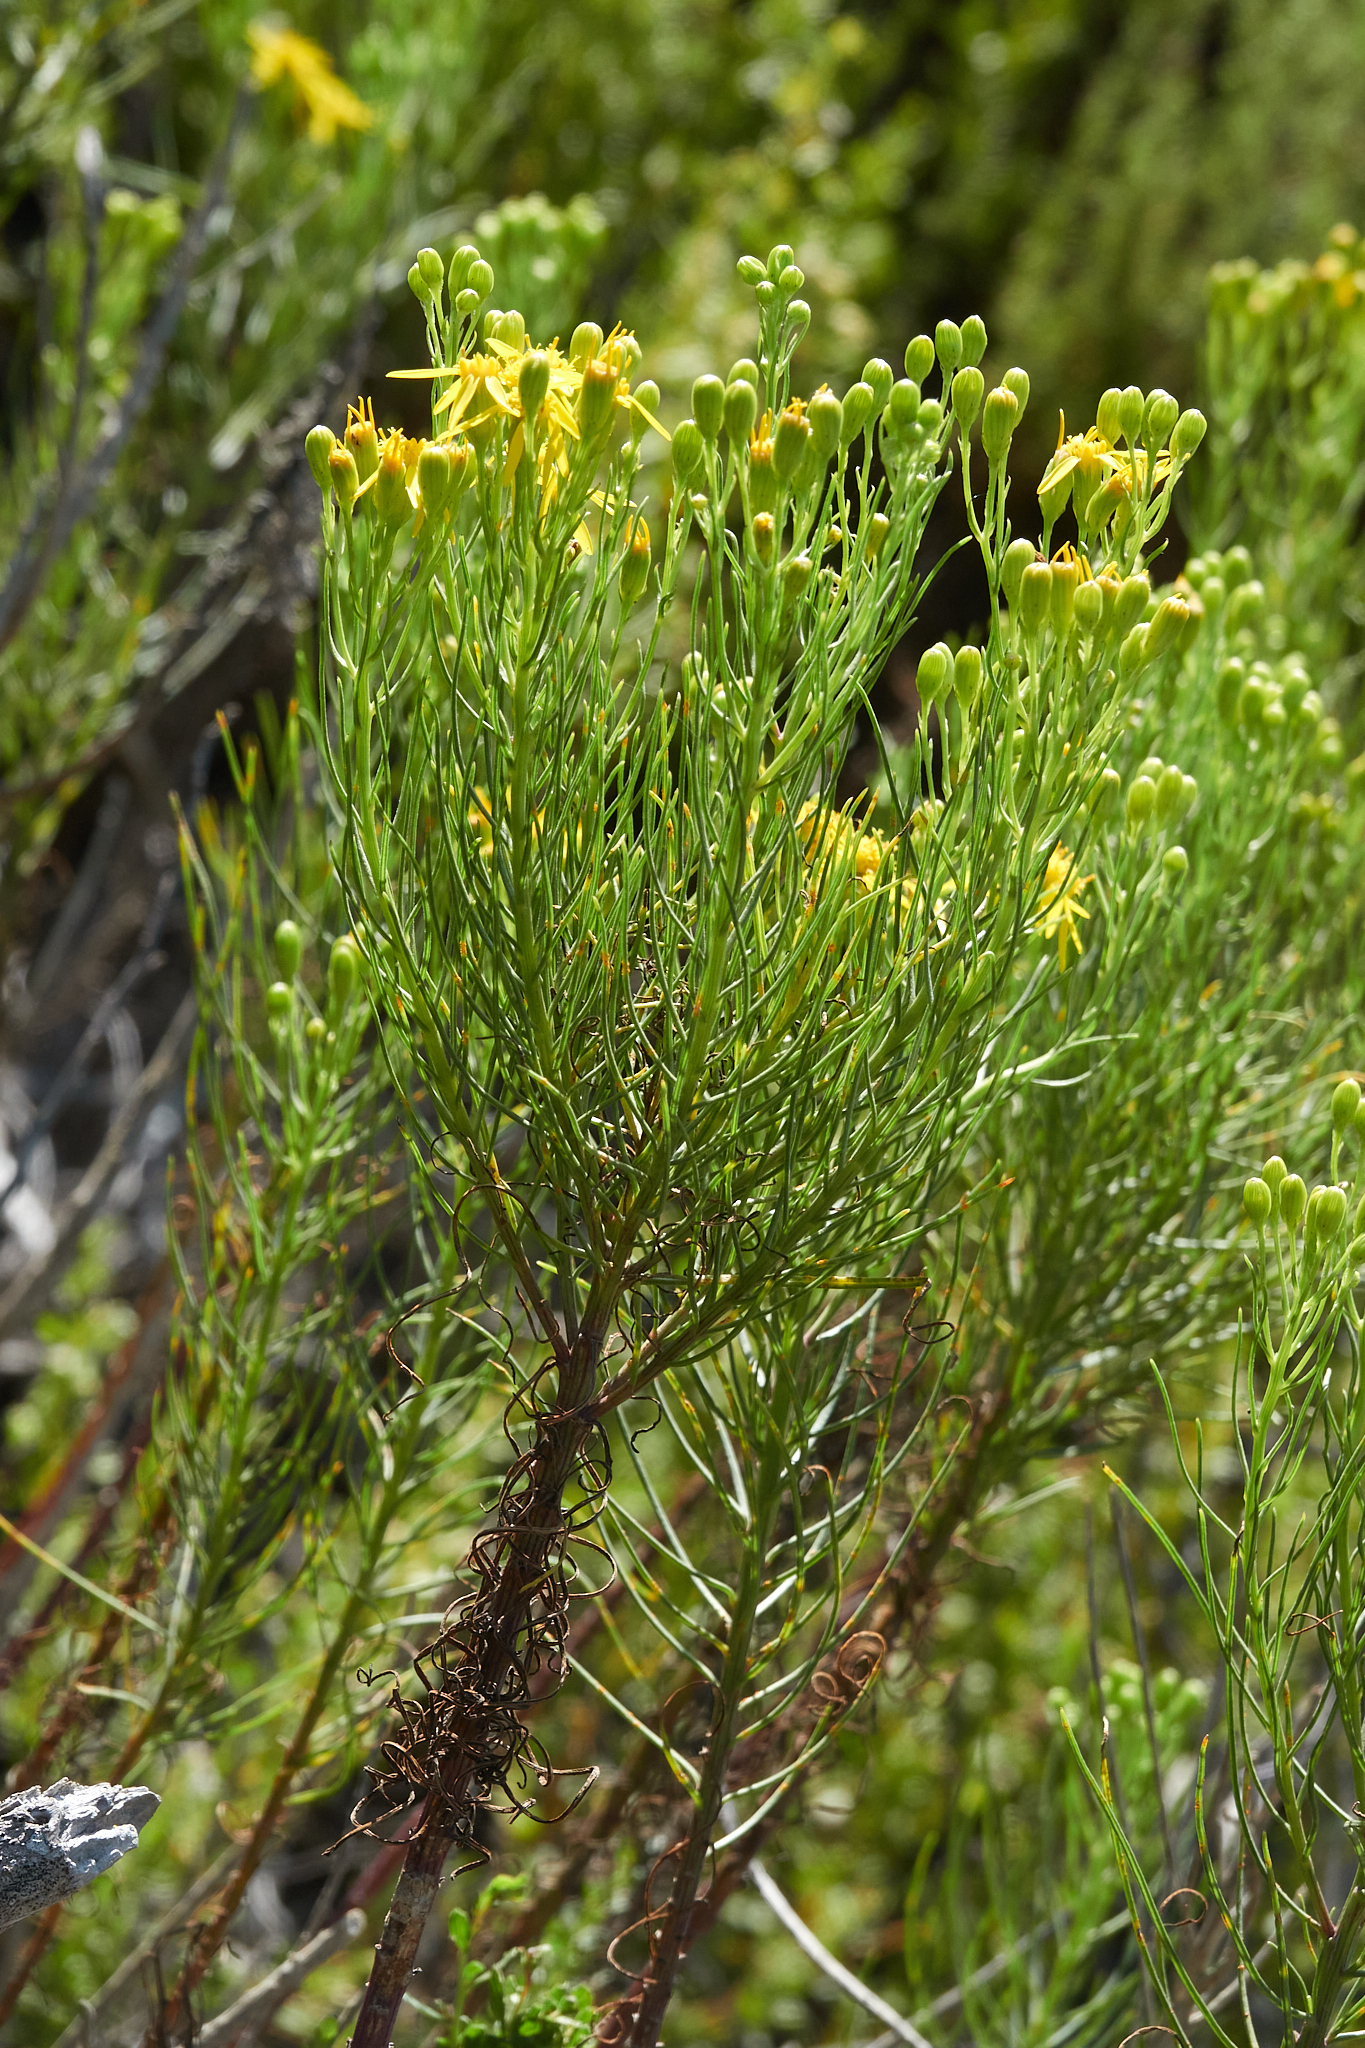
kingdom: Plantae
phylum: Tracheophyta
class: Magnoliopsida
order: Asterales
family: Asteraceae
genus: Senecio
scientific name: Senecio blochmaniae
